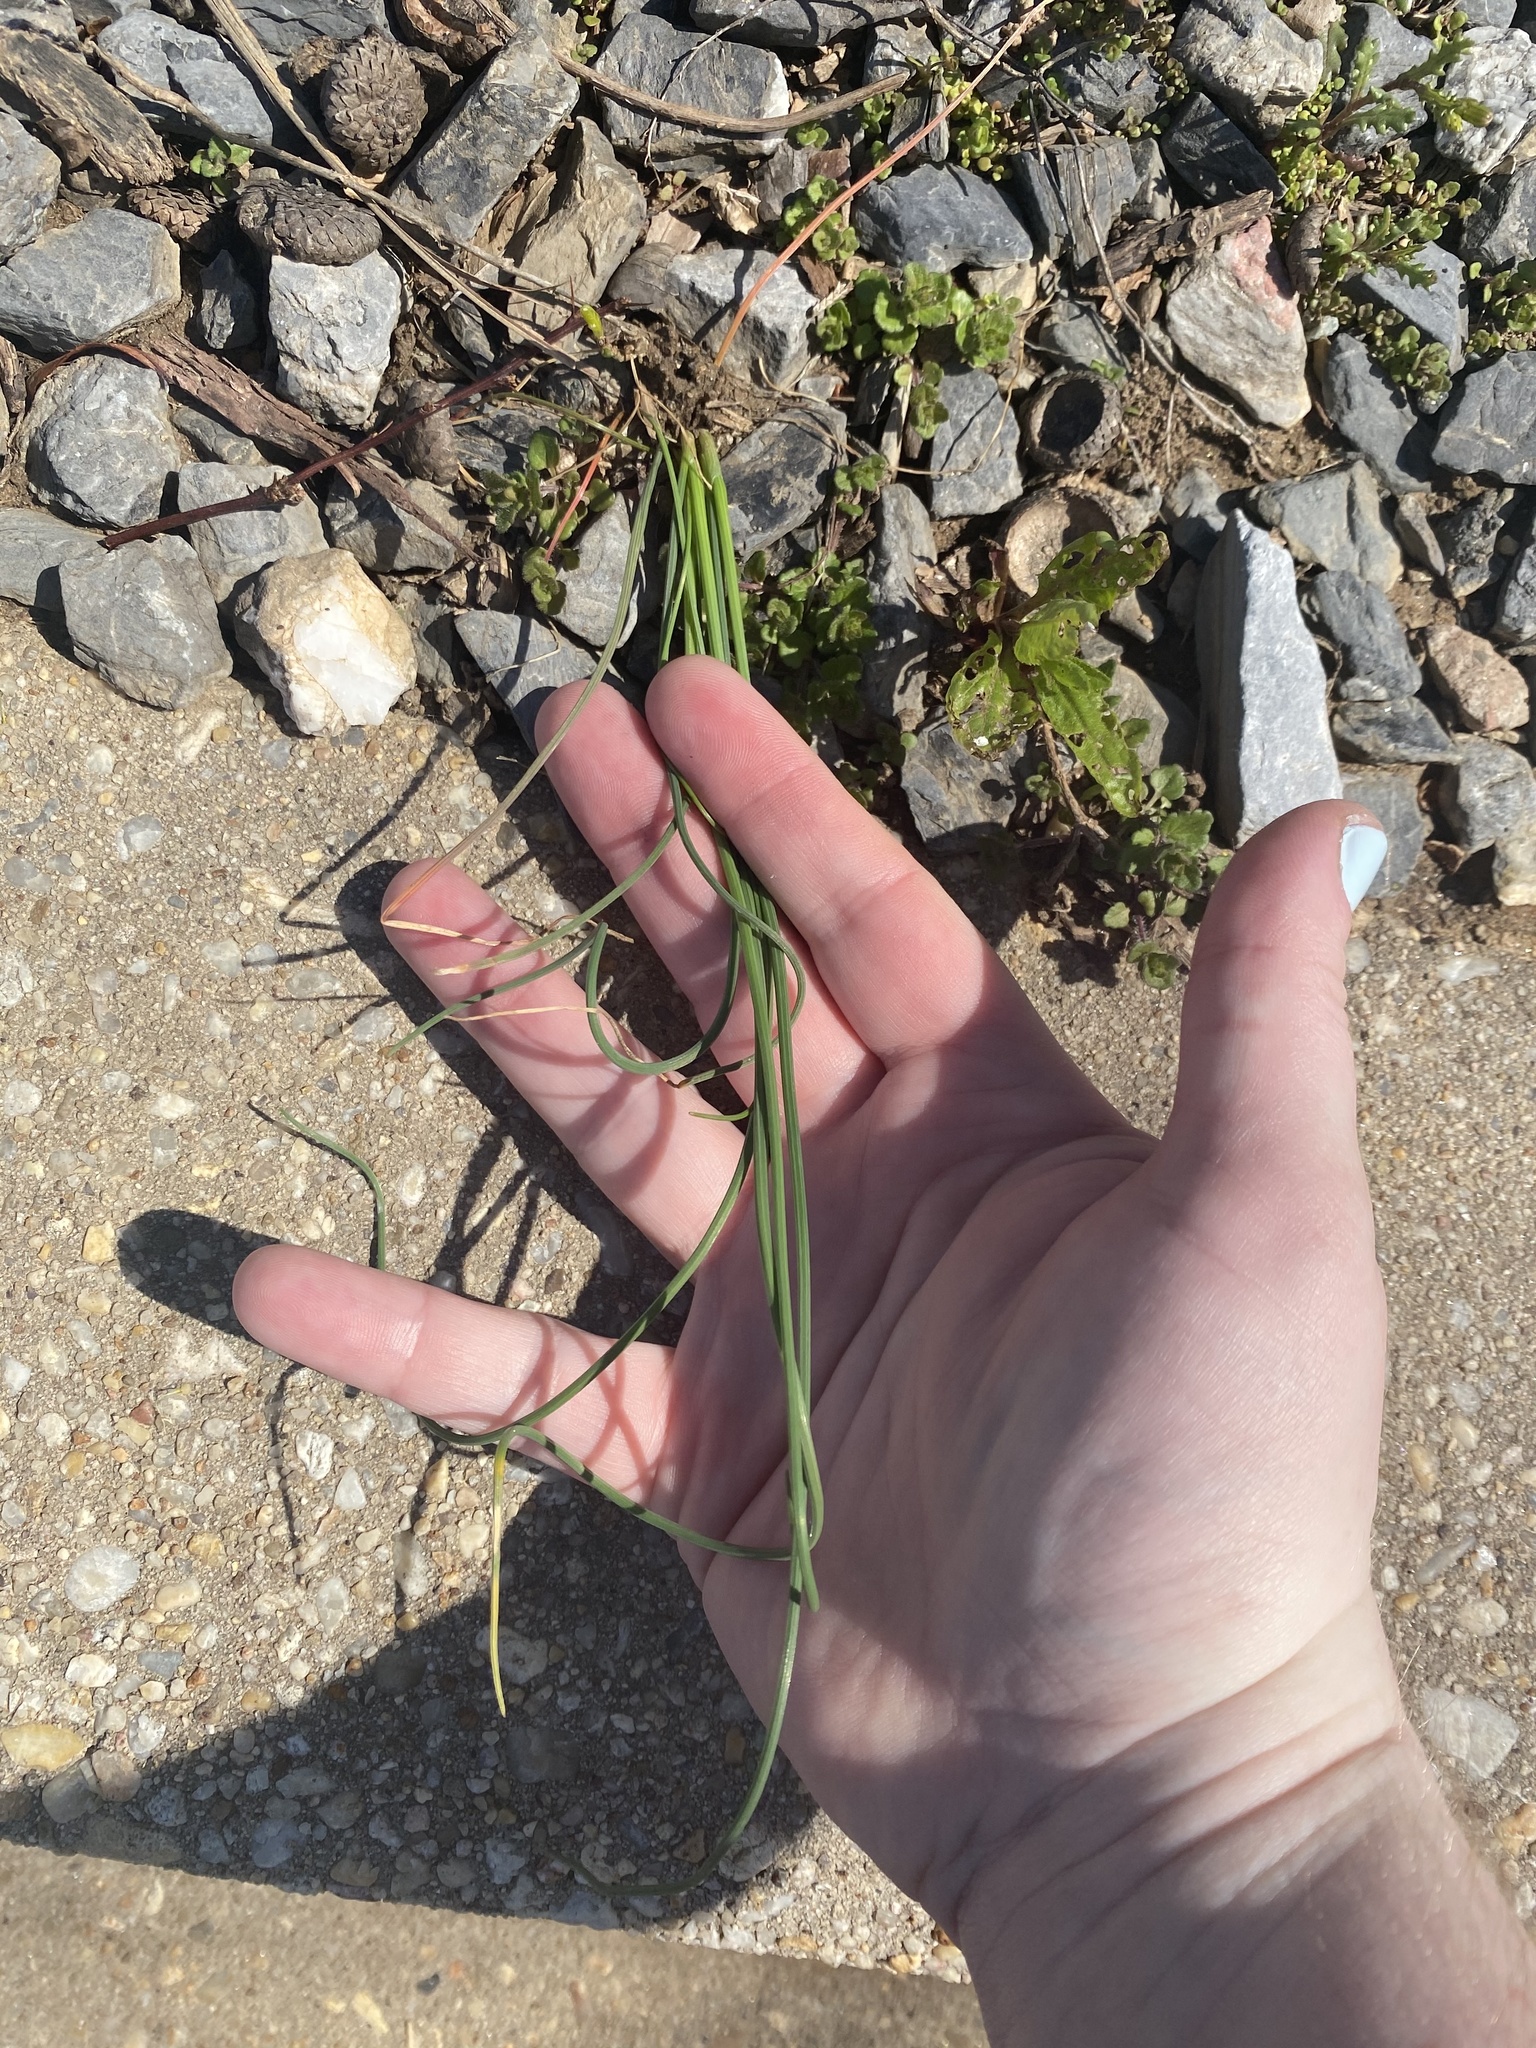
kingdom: Plantae
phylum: Tracheophyta
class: Liliopsida
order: Asparagales
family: Amaryllidaceae
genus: Allium
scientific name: Allium vineale
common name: Crow garlic
